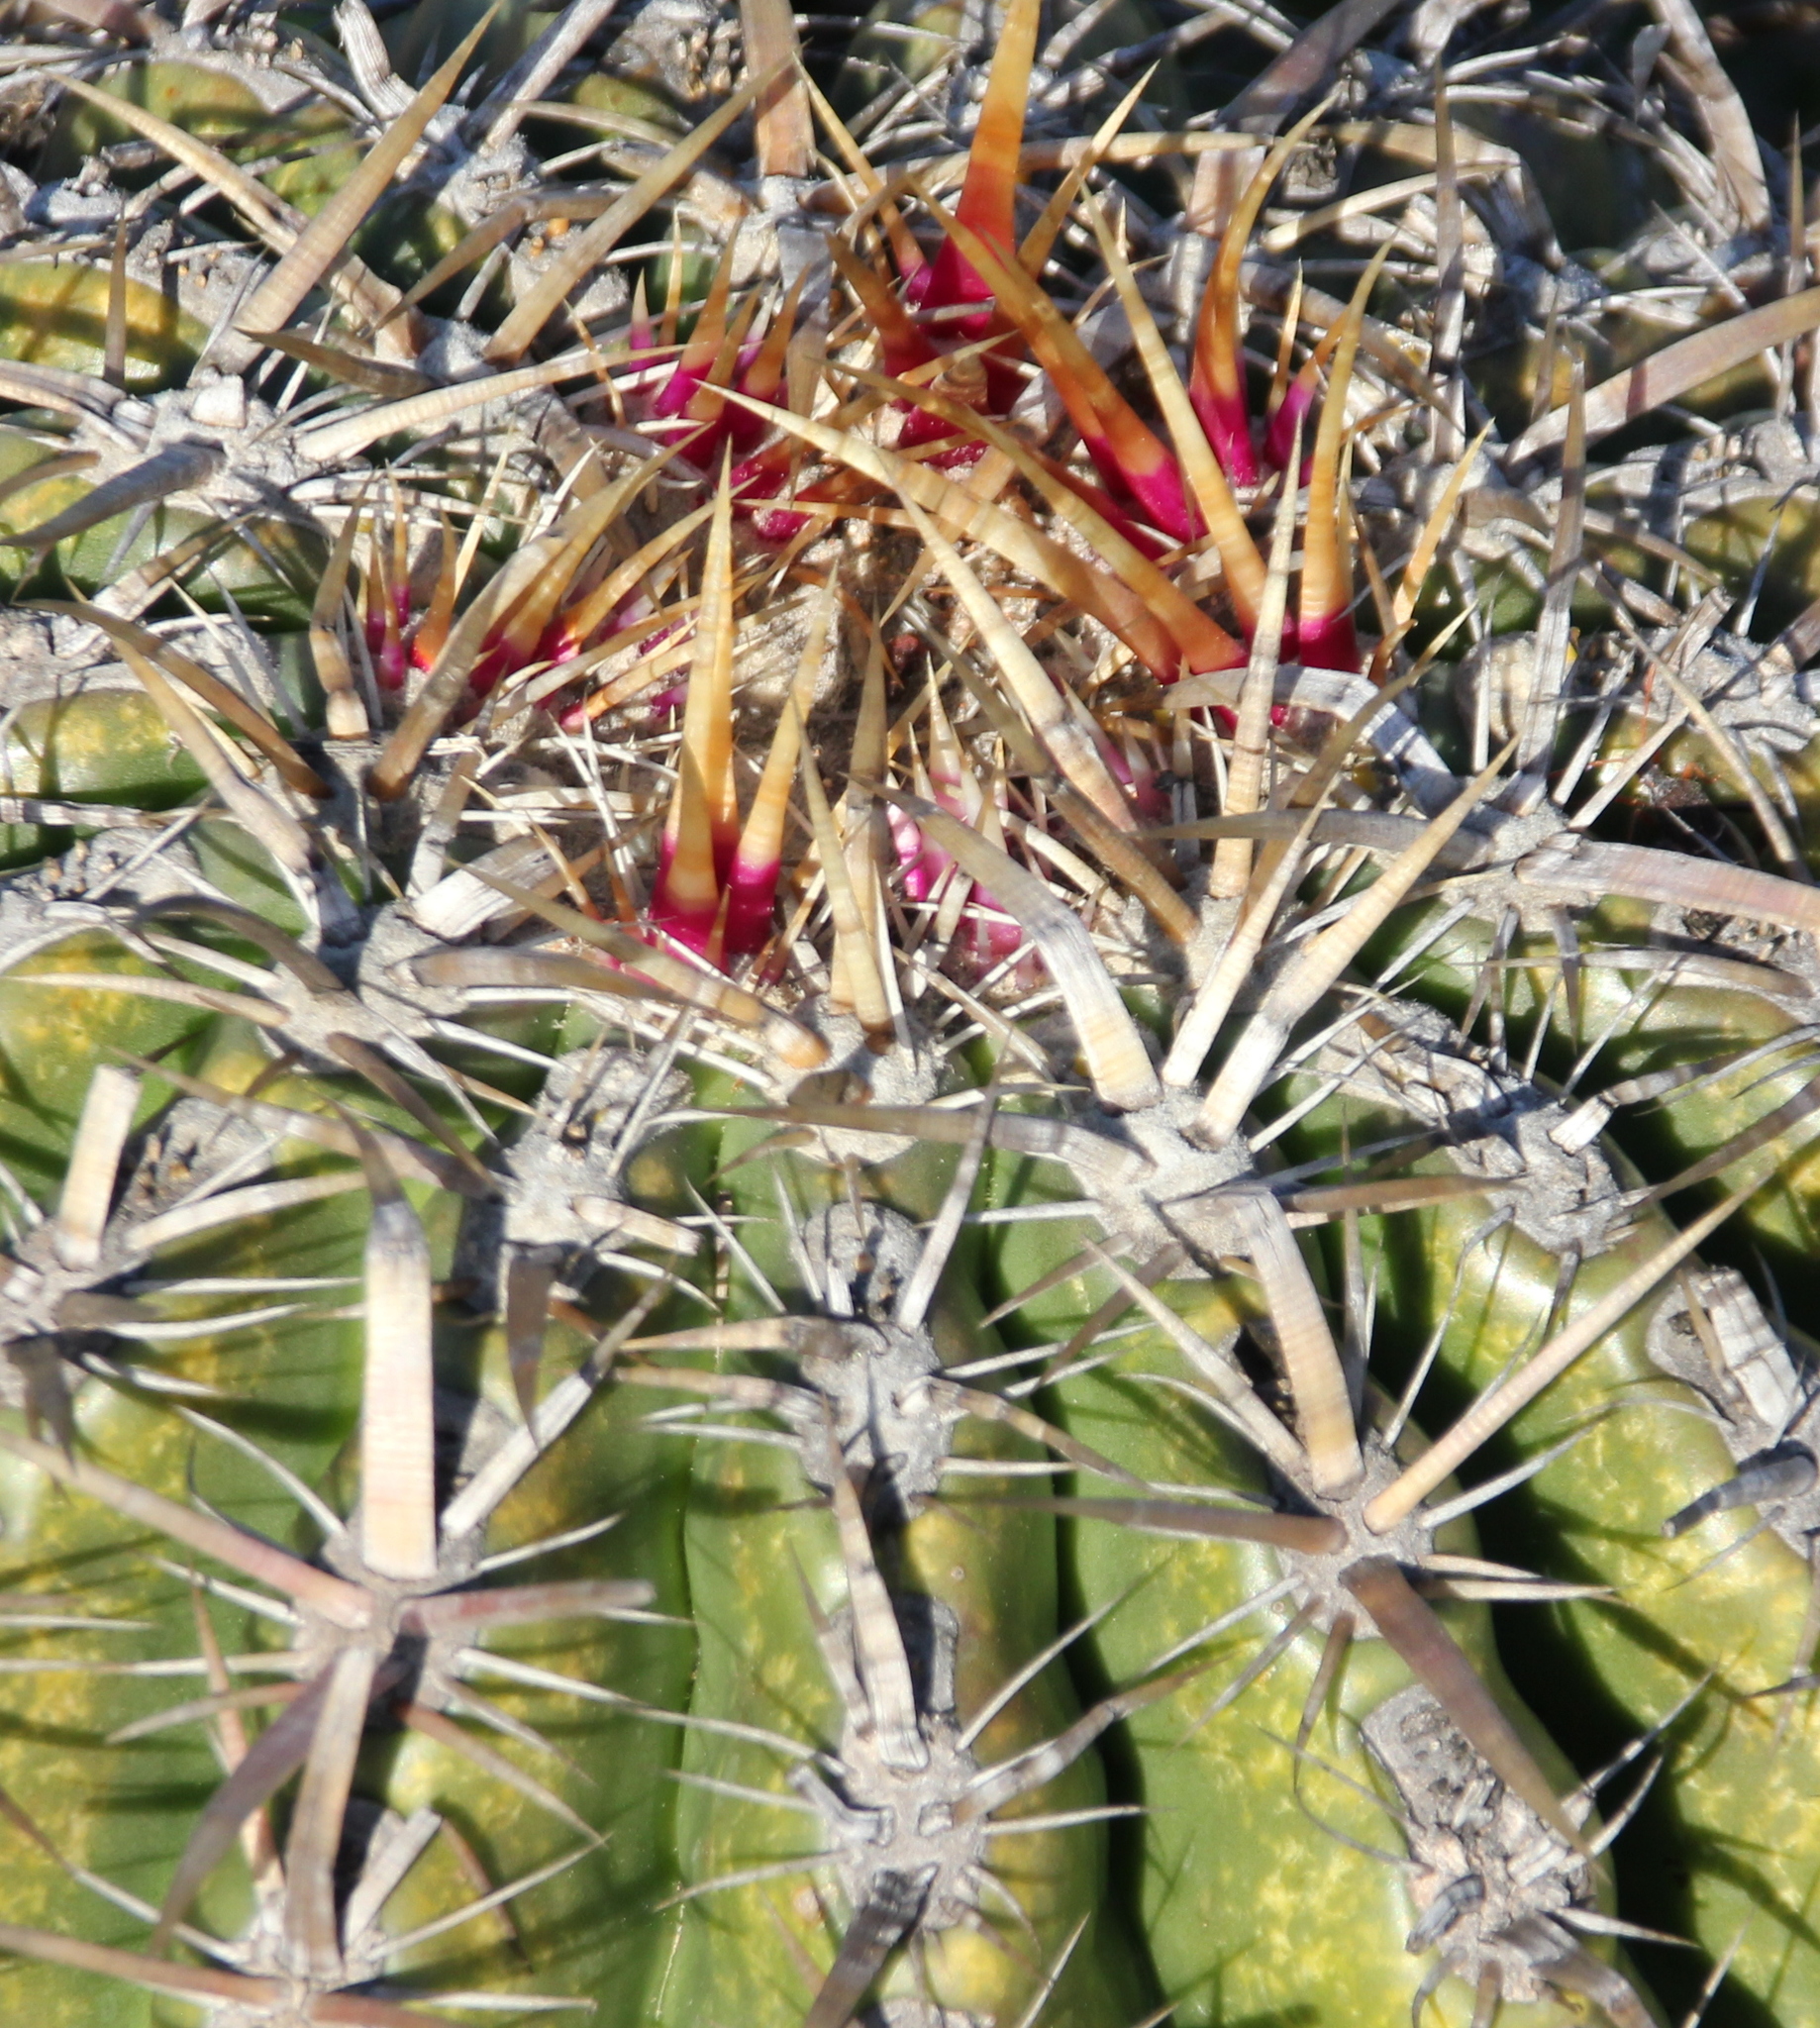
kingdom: Plantae
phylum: Tracheophyta
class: Magnoliopsida
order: Caryophyllales
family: Cactaceae
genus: Ferocactus
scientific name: Ferocactus viridescens
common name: San diego barrel cactus
